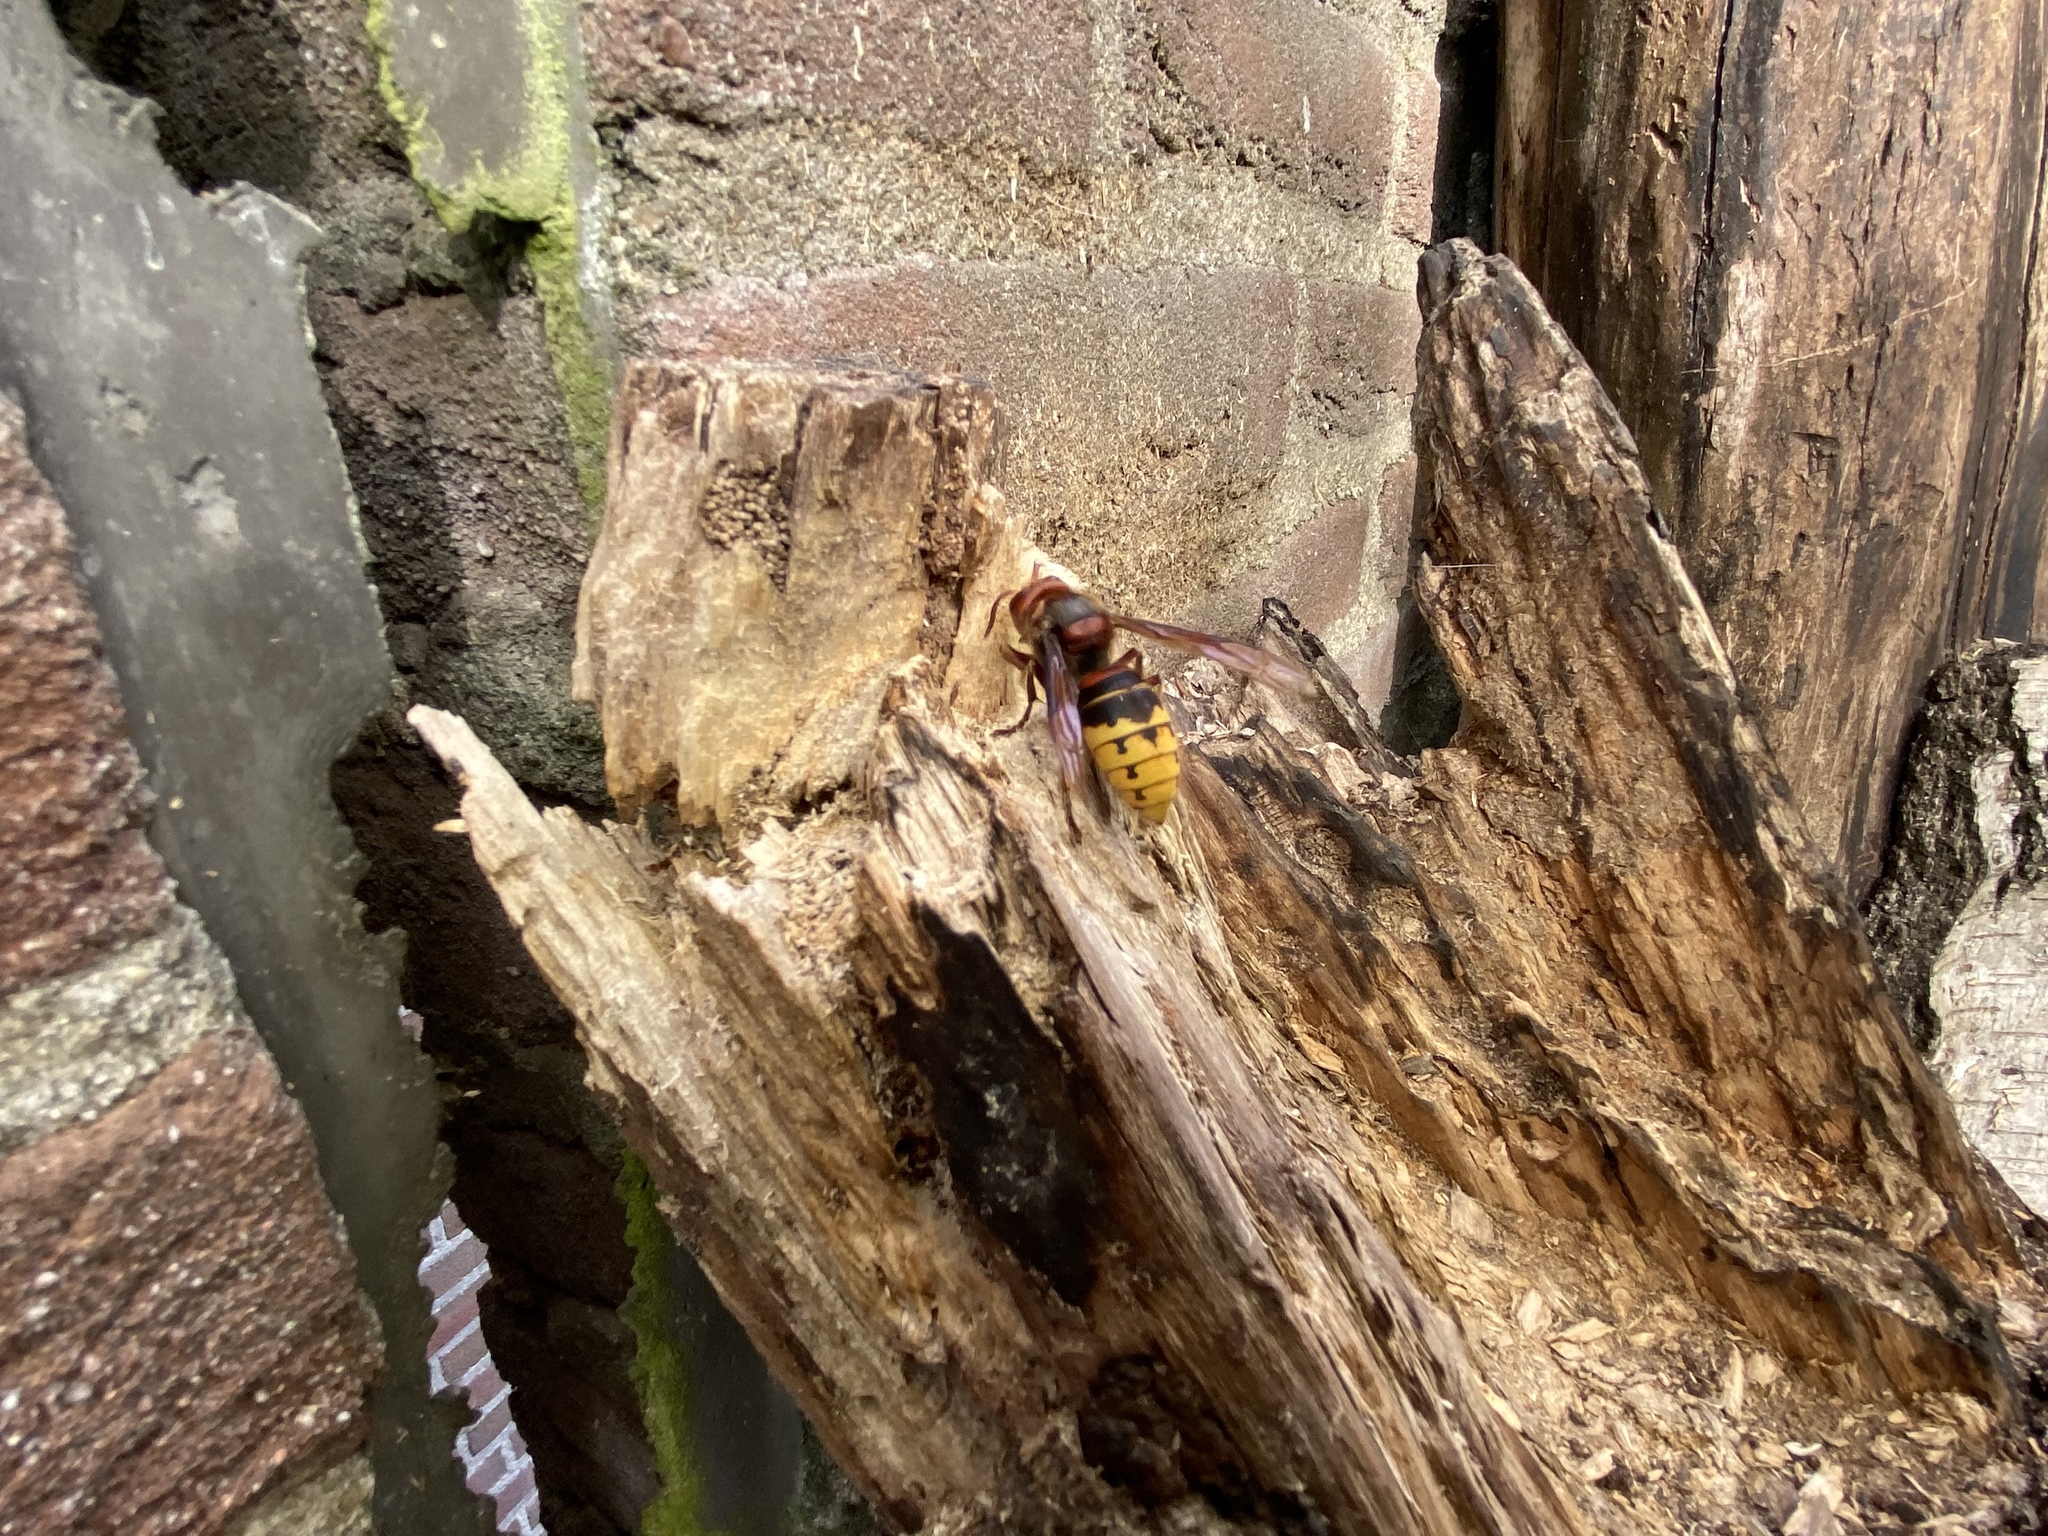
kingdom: Animalia
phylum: Arthropoda
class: Insecta
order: Hymenoptera
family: Vespidae
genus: Vespa
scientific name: Vespa crabro
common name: Hornet
